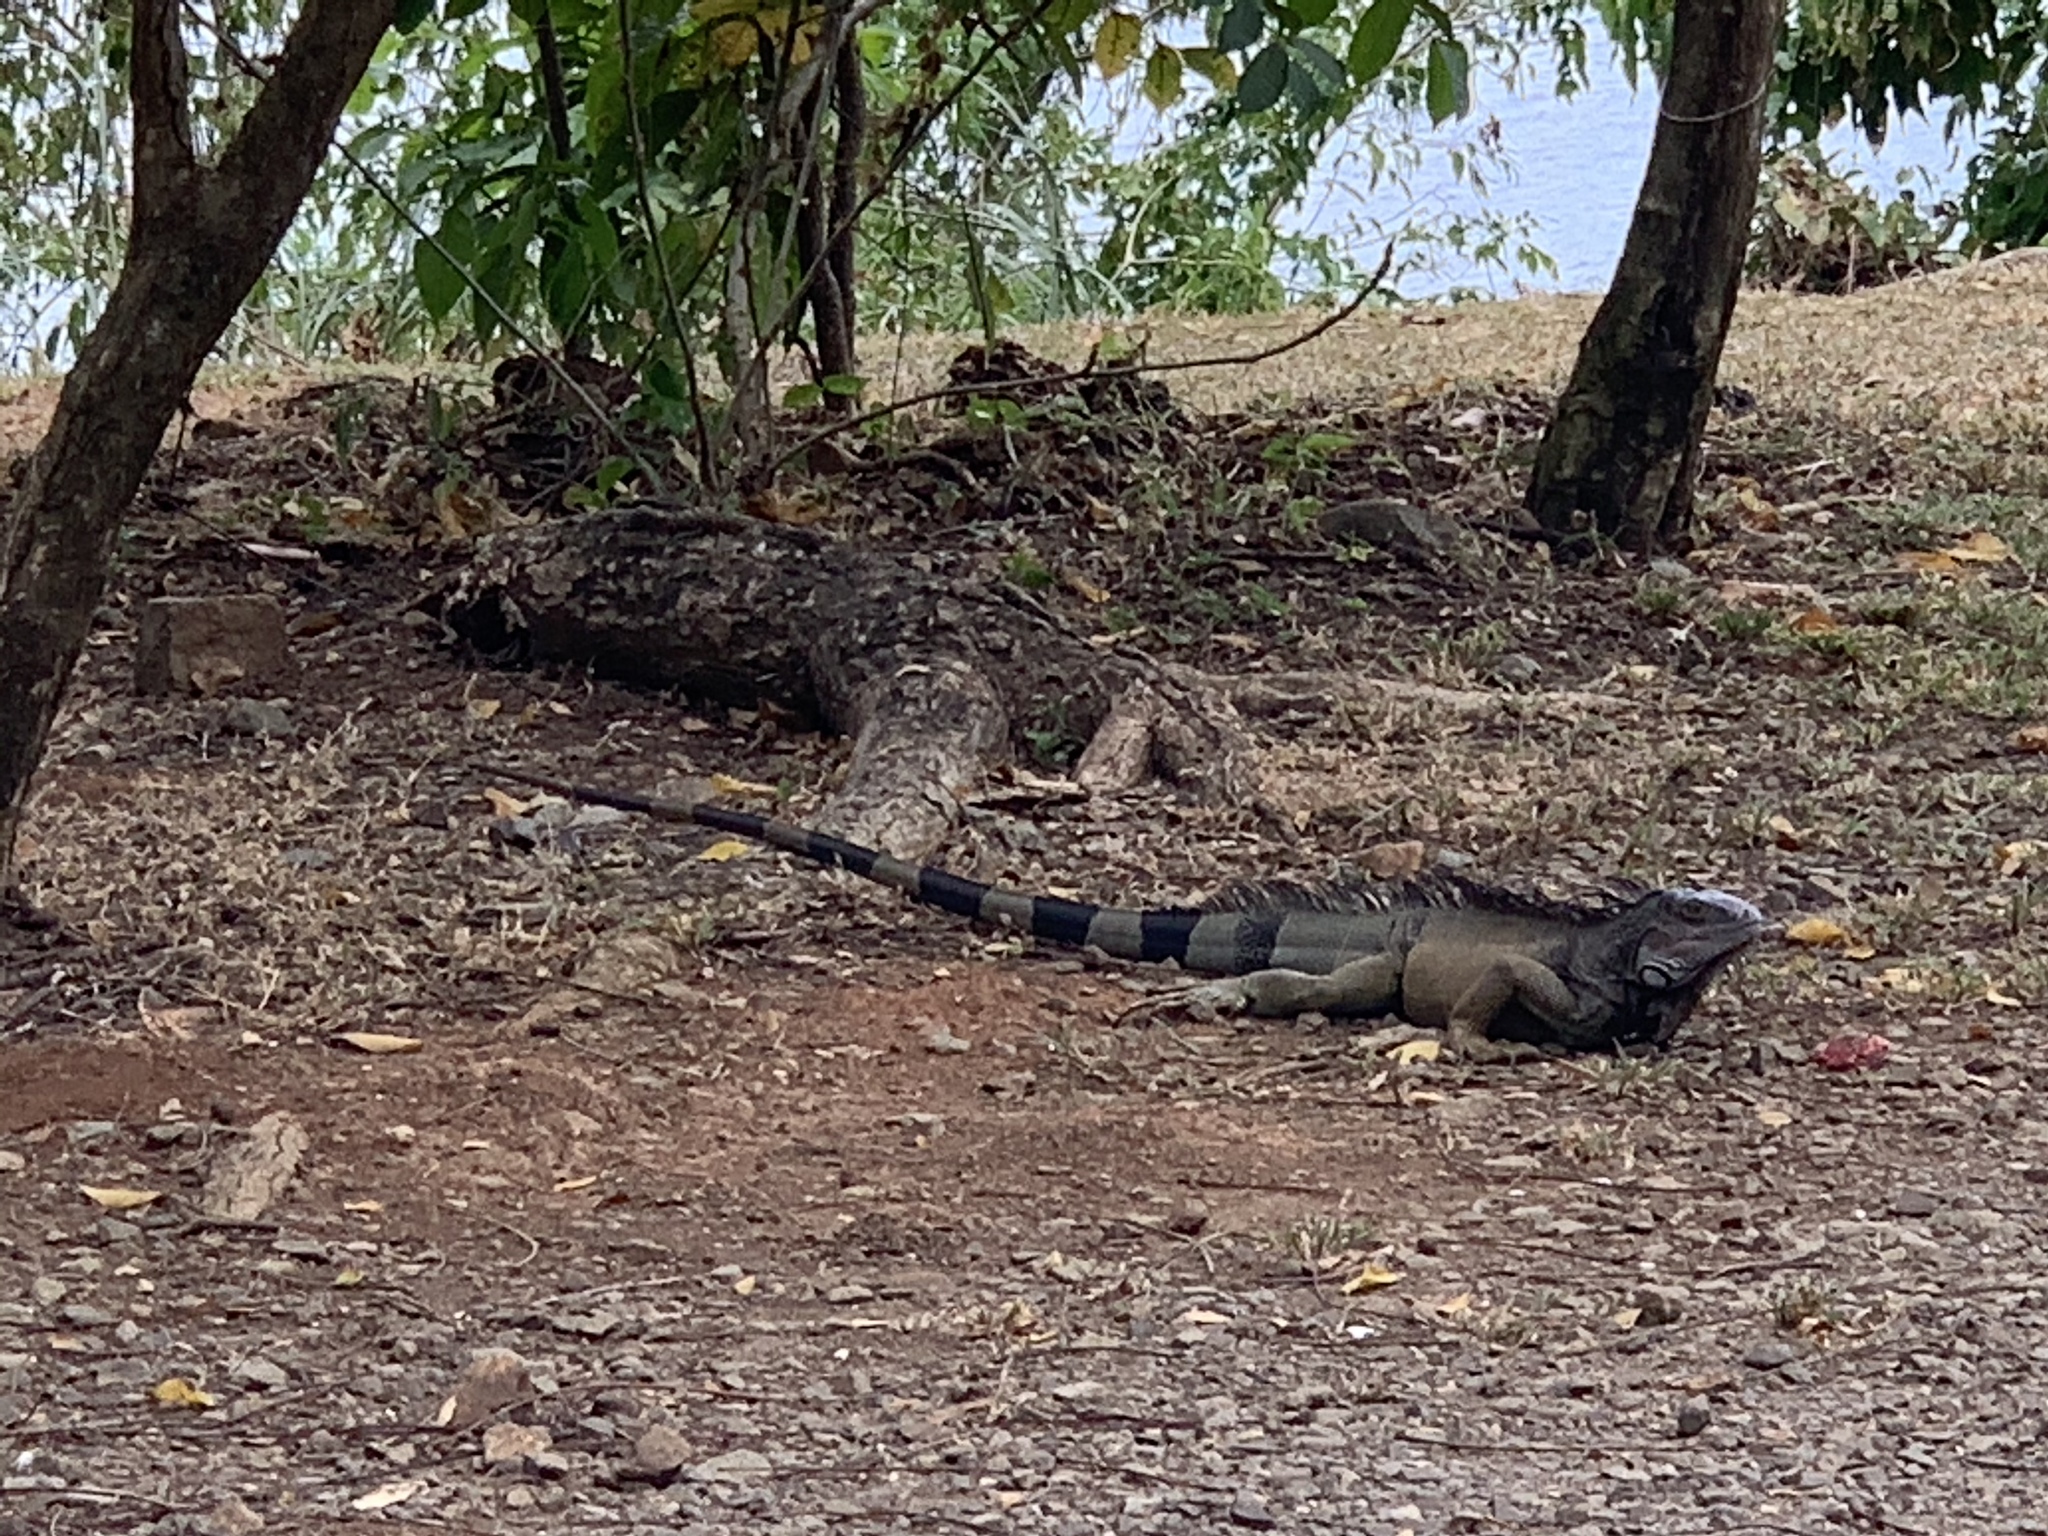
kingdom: Animalia
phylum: Chordata
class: Squamata
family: Iguanidae
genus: Iguana
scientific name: Iguana iguana
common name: Green iguana
